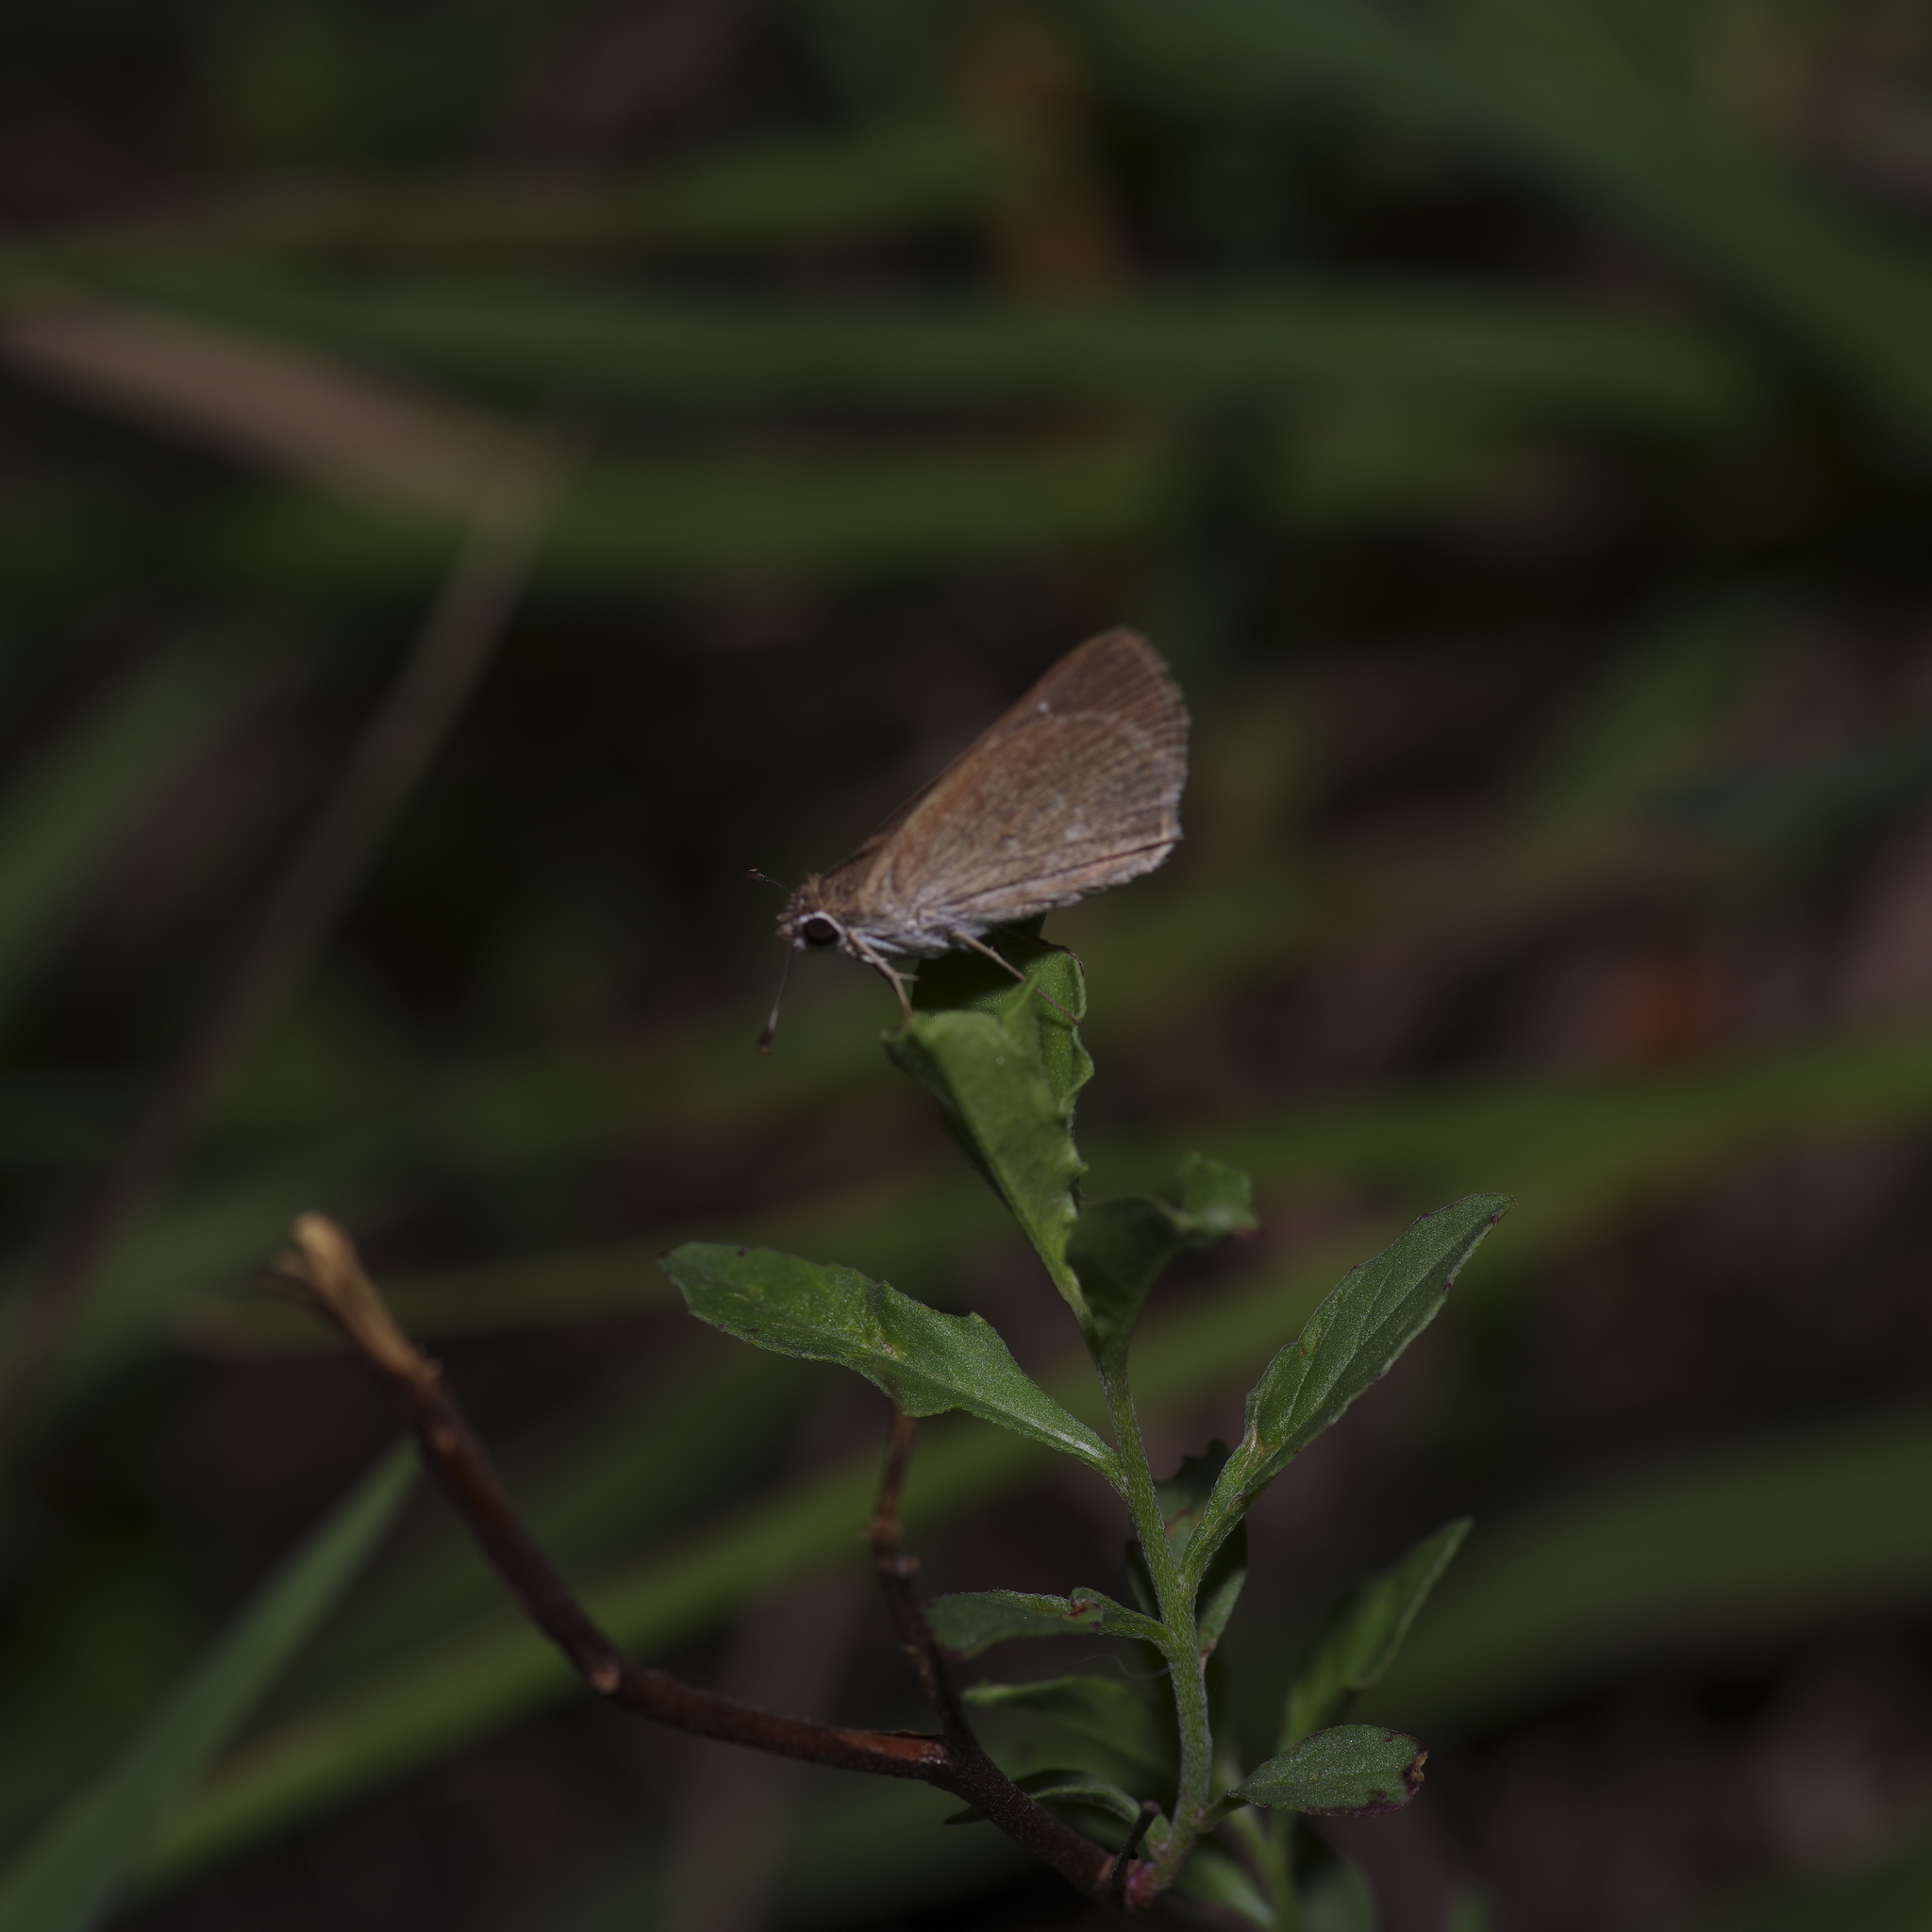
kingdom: Animalia
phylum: Arthropoda
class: Insecta
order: Lepidoptera
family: Hesperiidae
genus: Lerodea
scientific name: Lerodea eufala
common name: Eufala skipper
